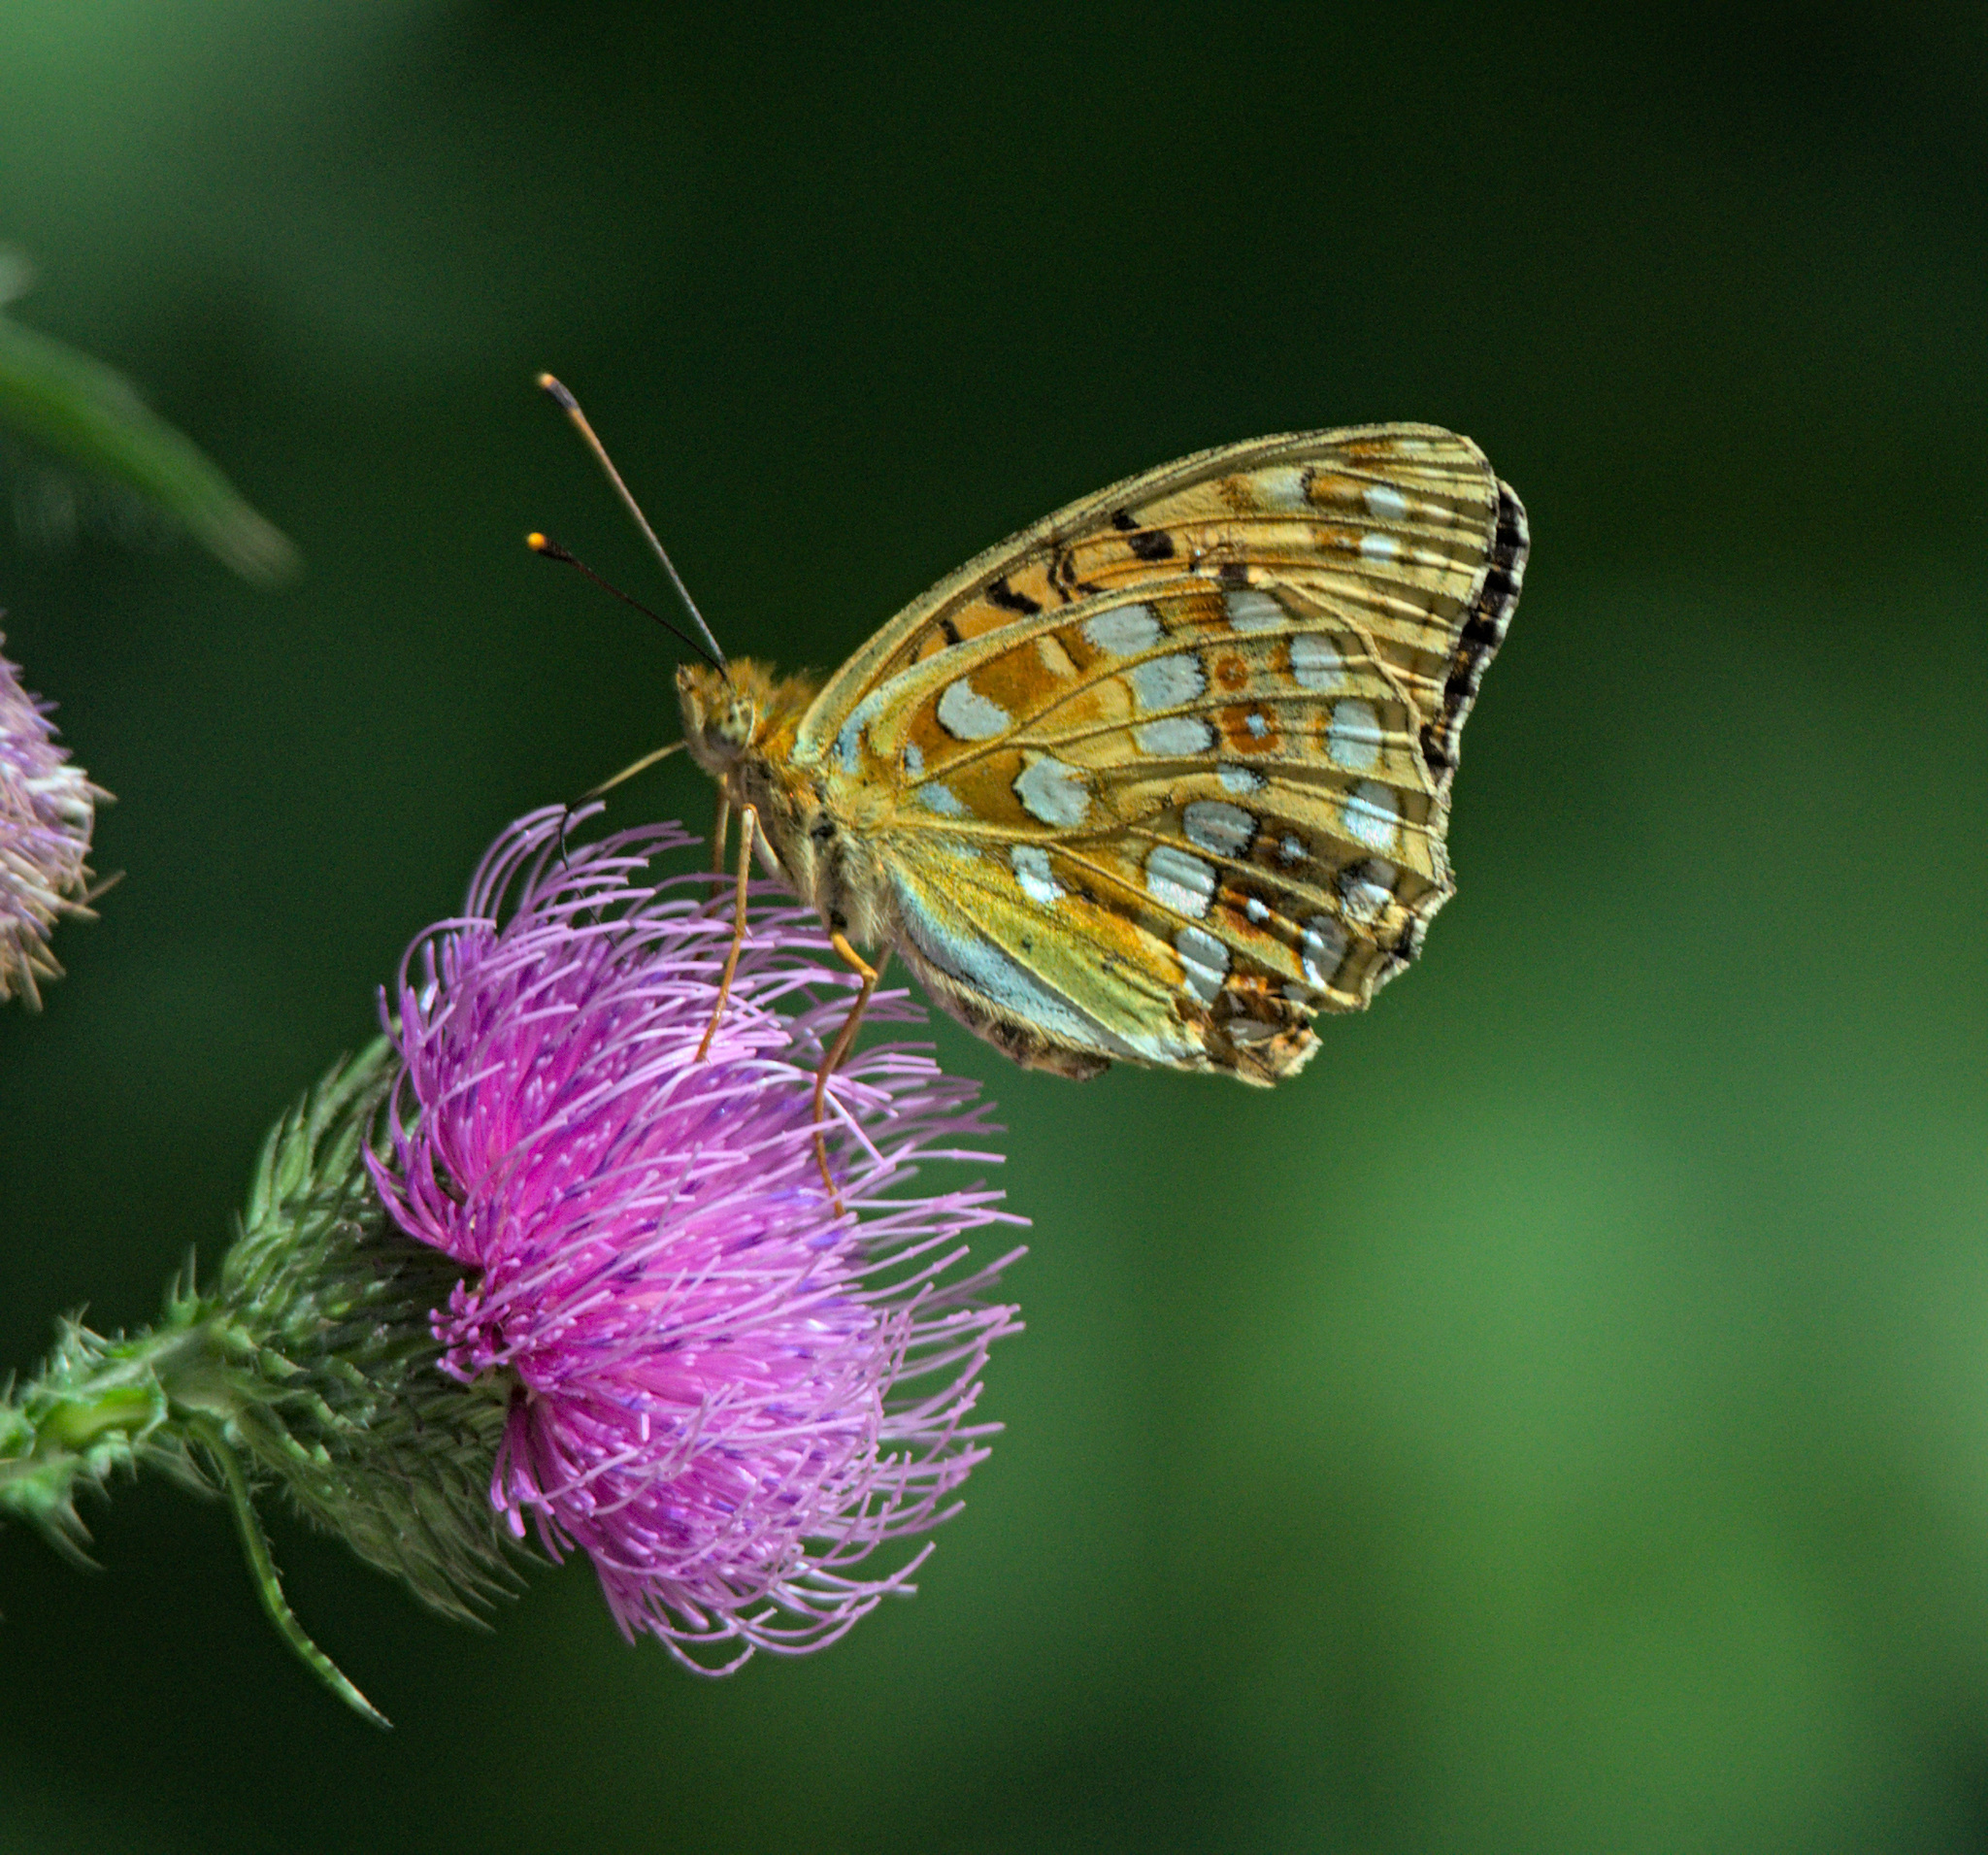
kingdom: Animalia
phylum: Arthropoda
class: Insecta
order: Lepidoptera
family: Nymphalidae
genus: Fabriciana
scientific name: Fabriciana adippe
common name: High brown fritillary
